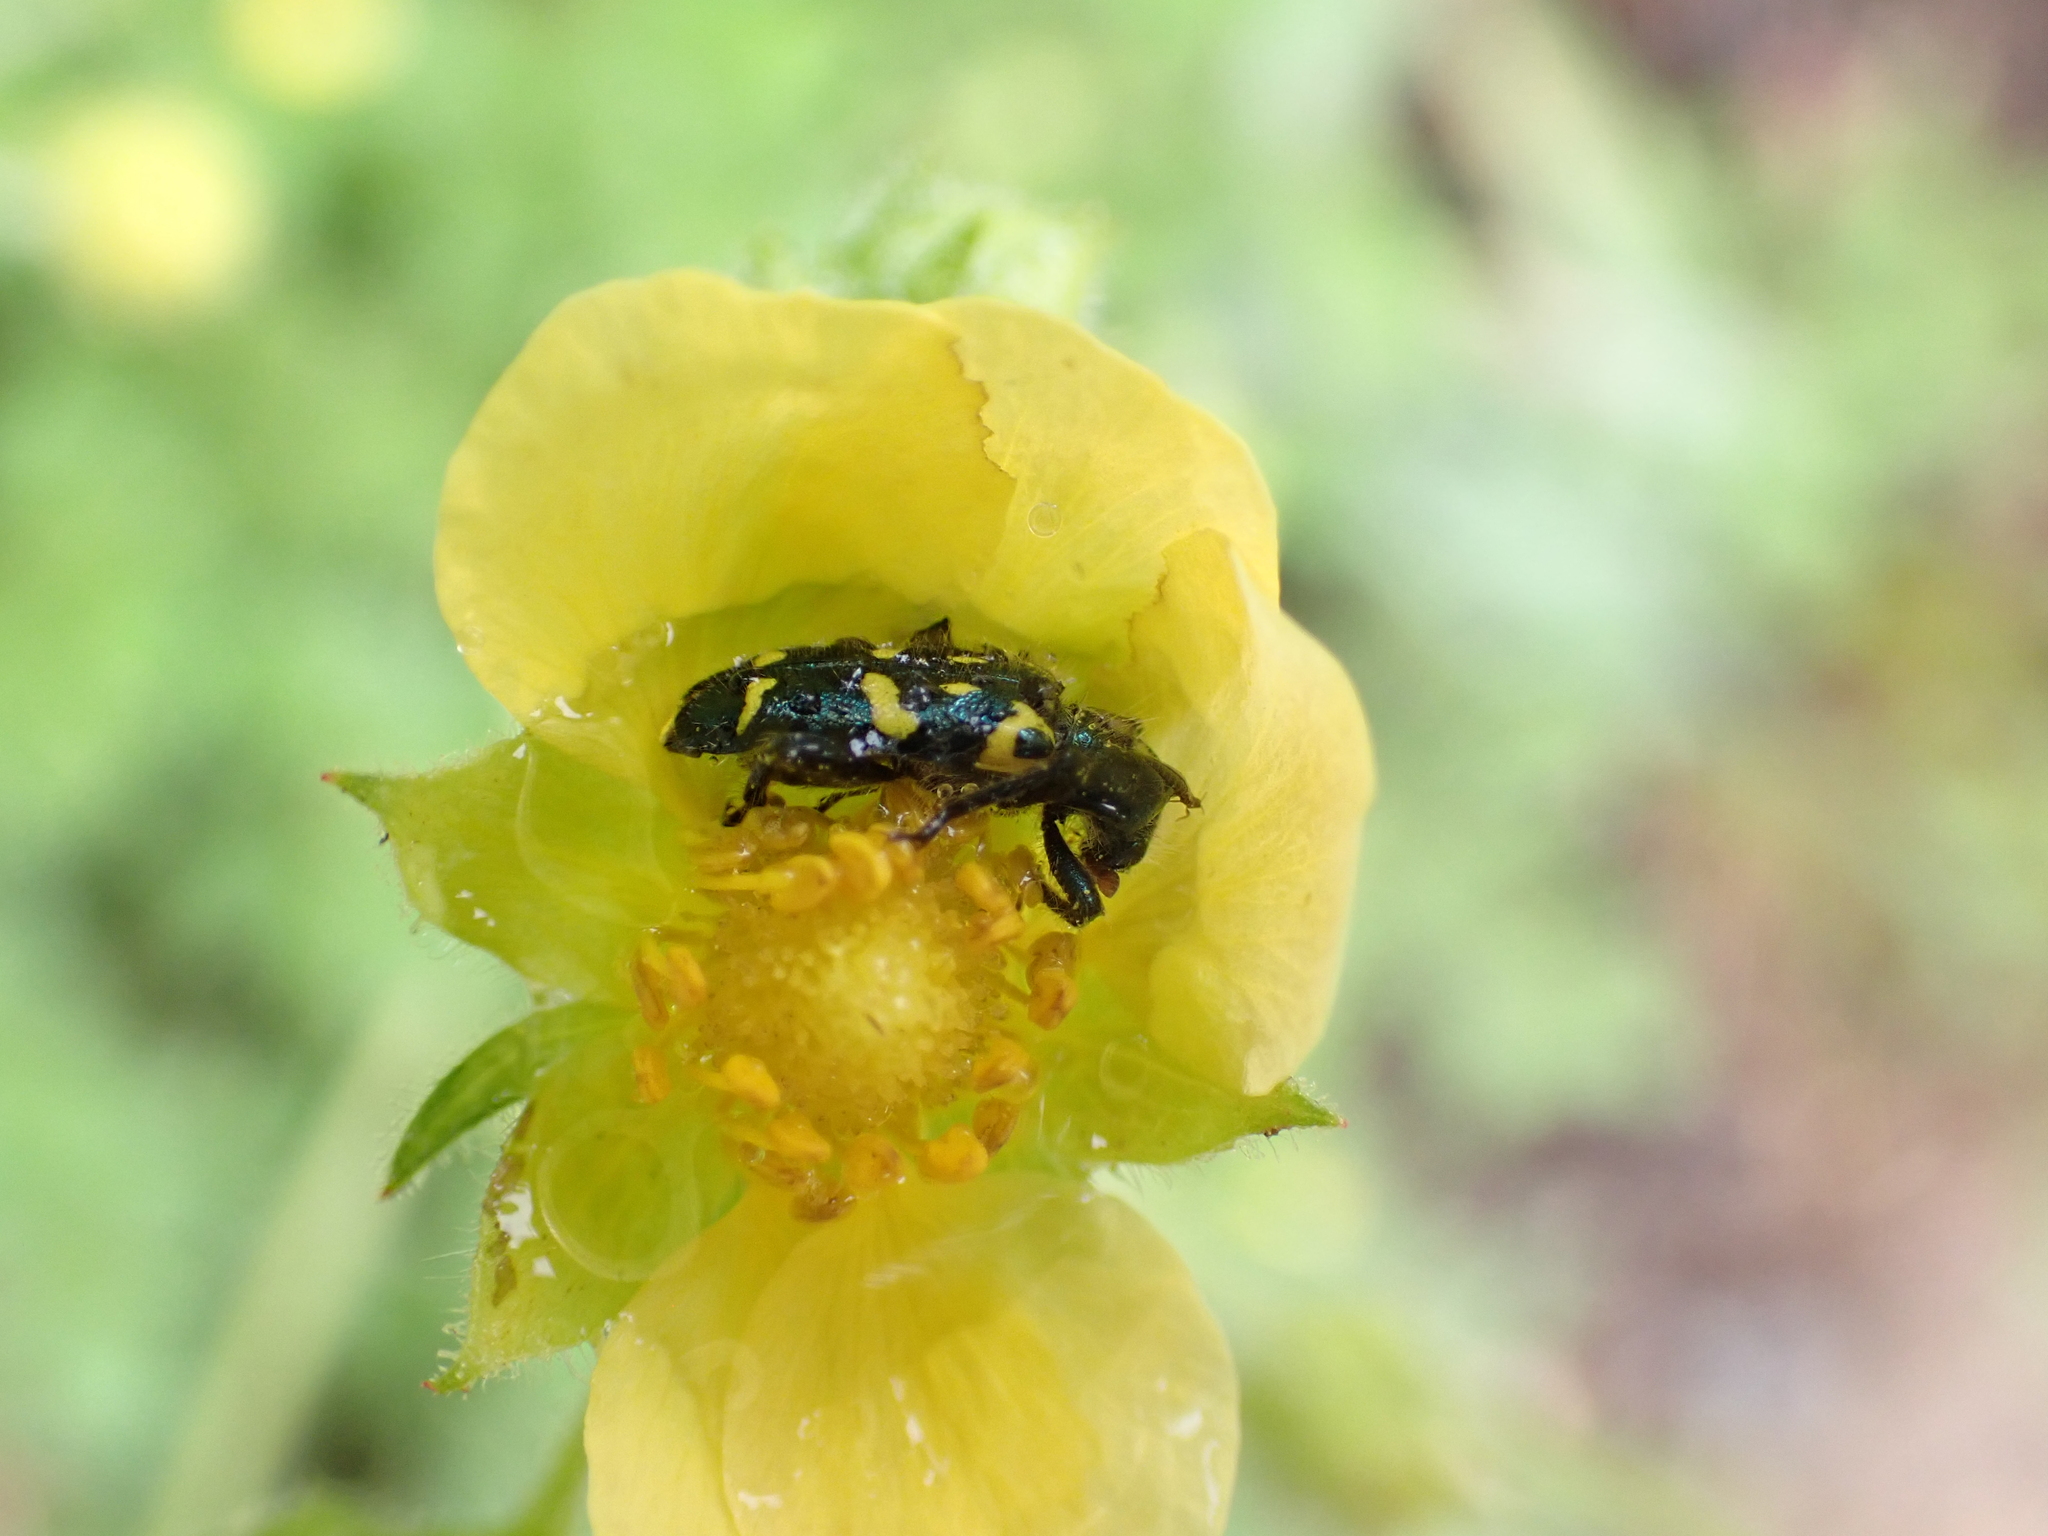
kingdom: Animalia
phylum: Arthropoda
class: Insecta
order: Coleoptera
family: Cleridae
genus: Trichodes
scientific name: Trichodes ornatus
